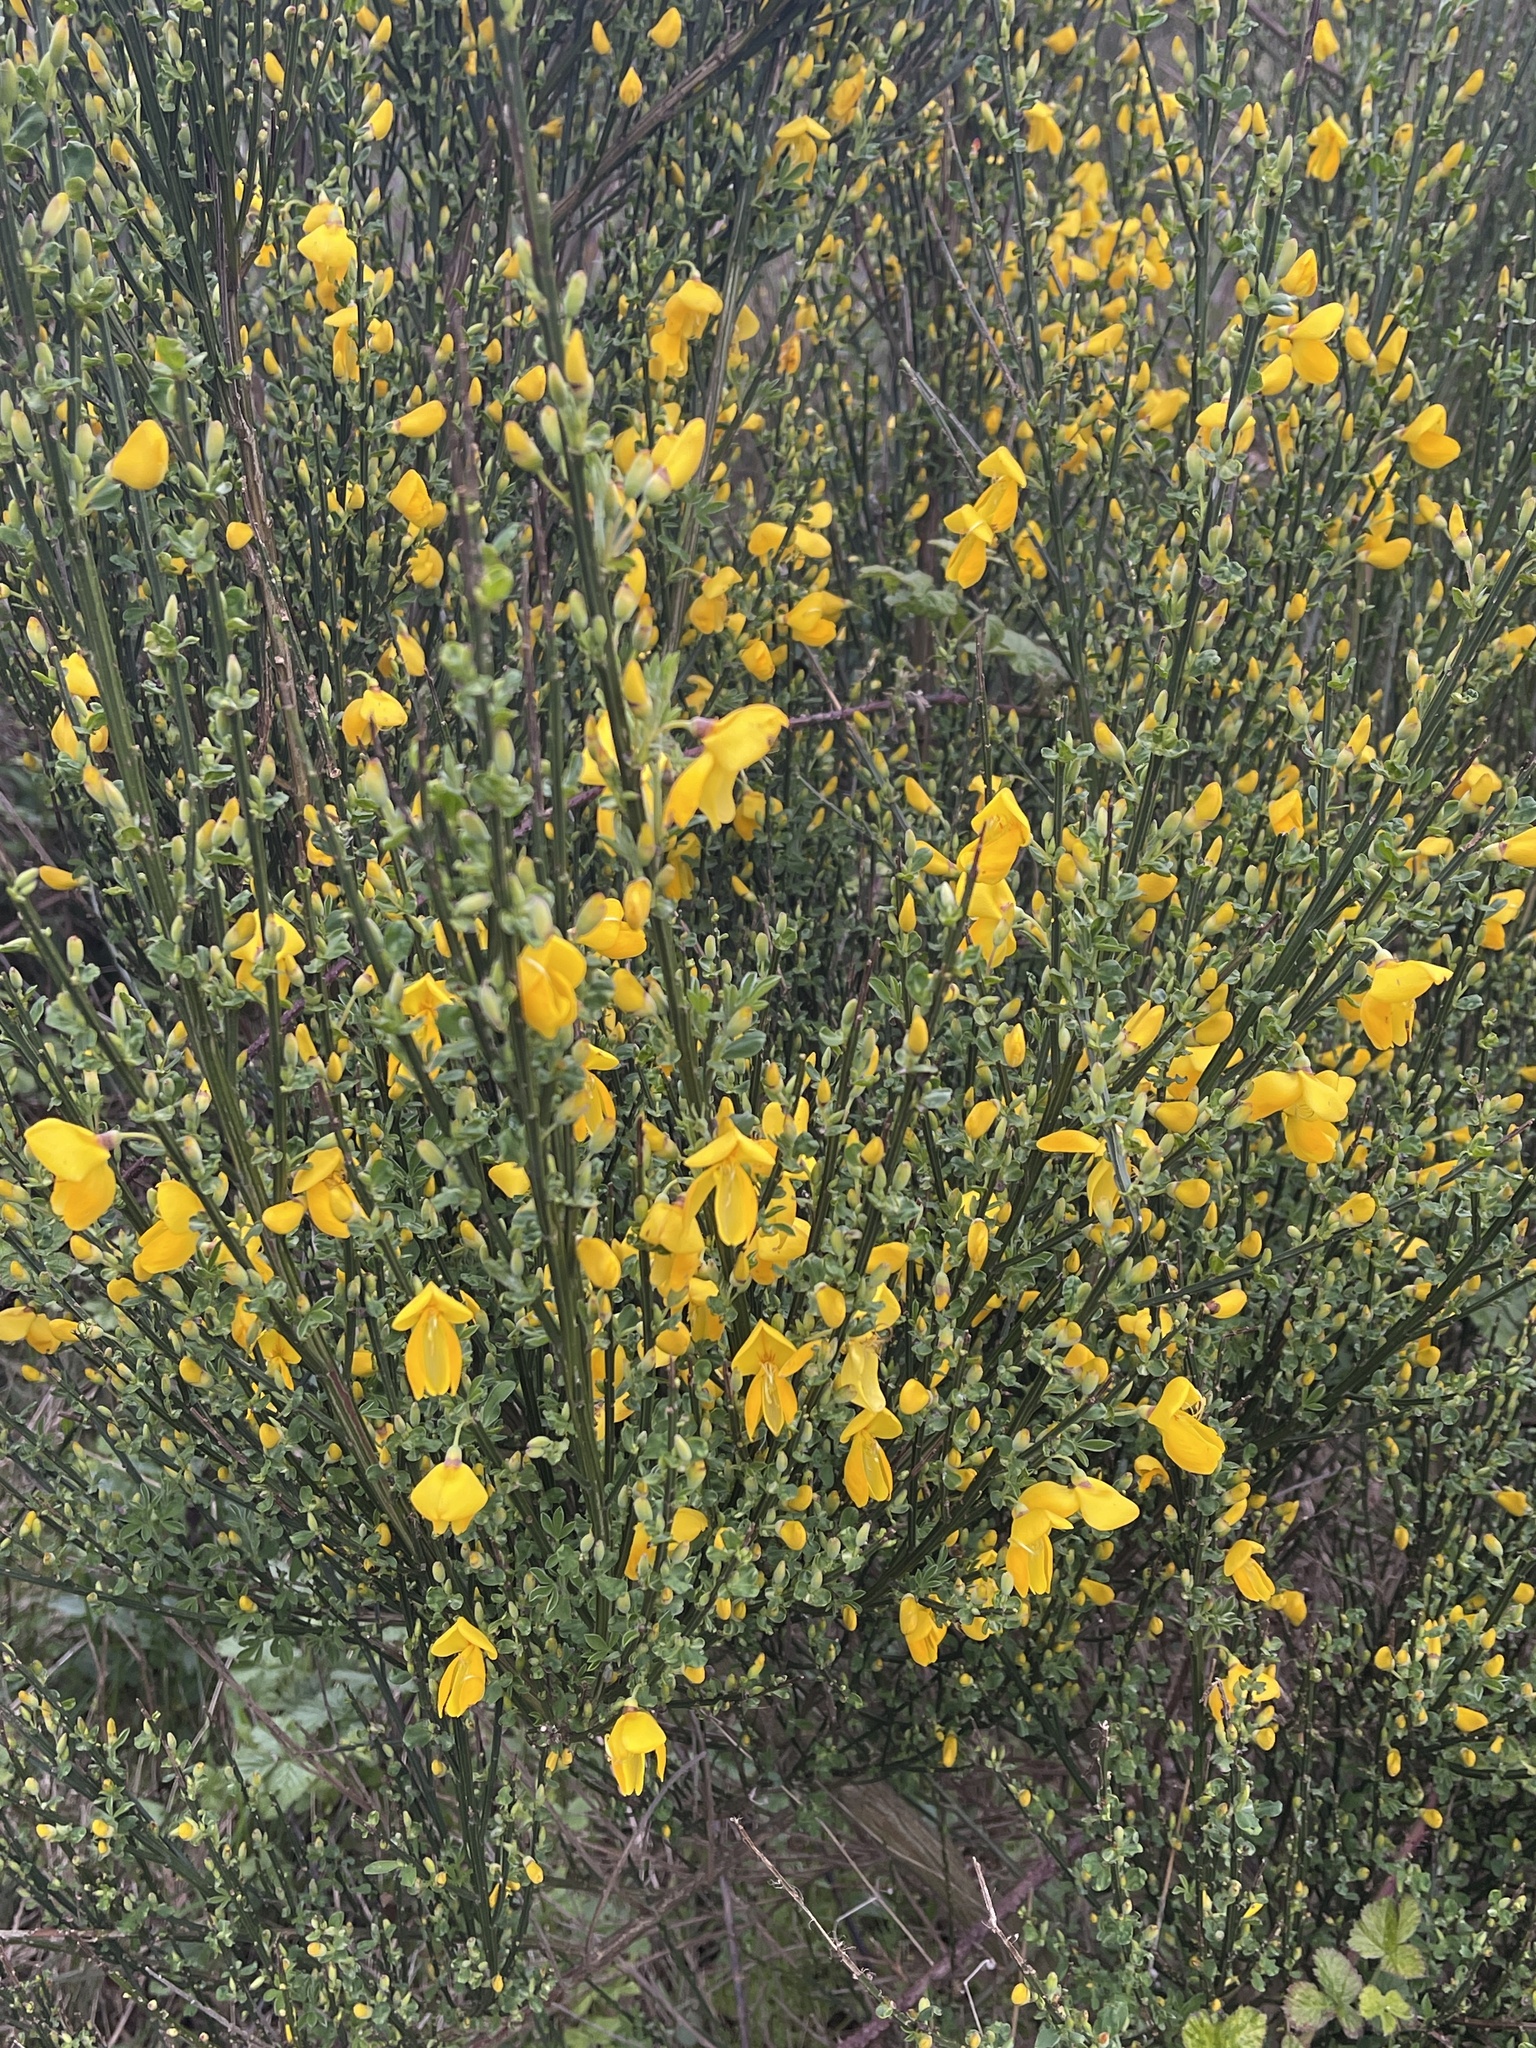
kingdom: Plantae
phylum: Tracheophyta
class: Magnoliopsida
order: Fabales
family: Fabaceae
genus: Cytisus
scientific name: Cytisus scoparius
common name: Scotch broom
